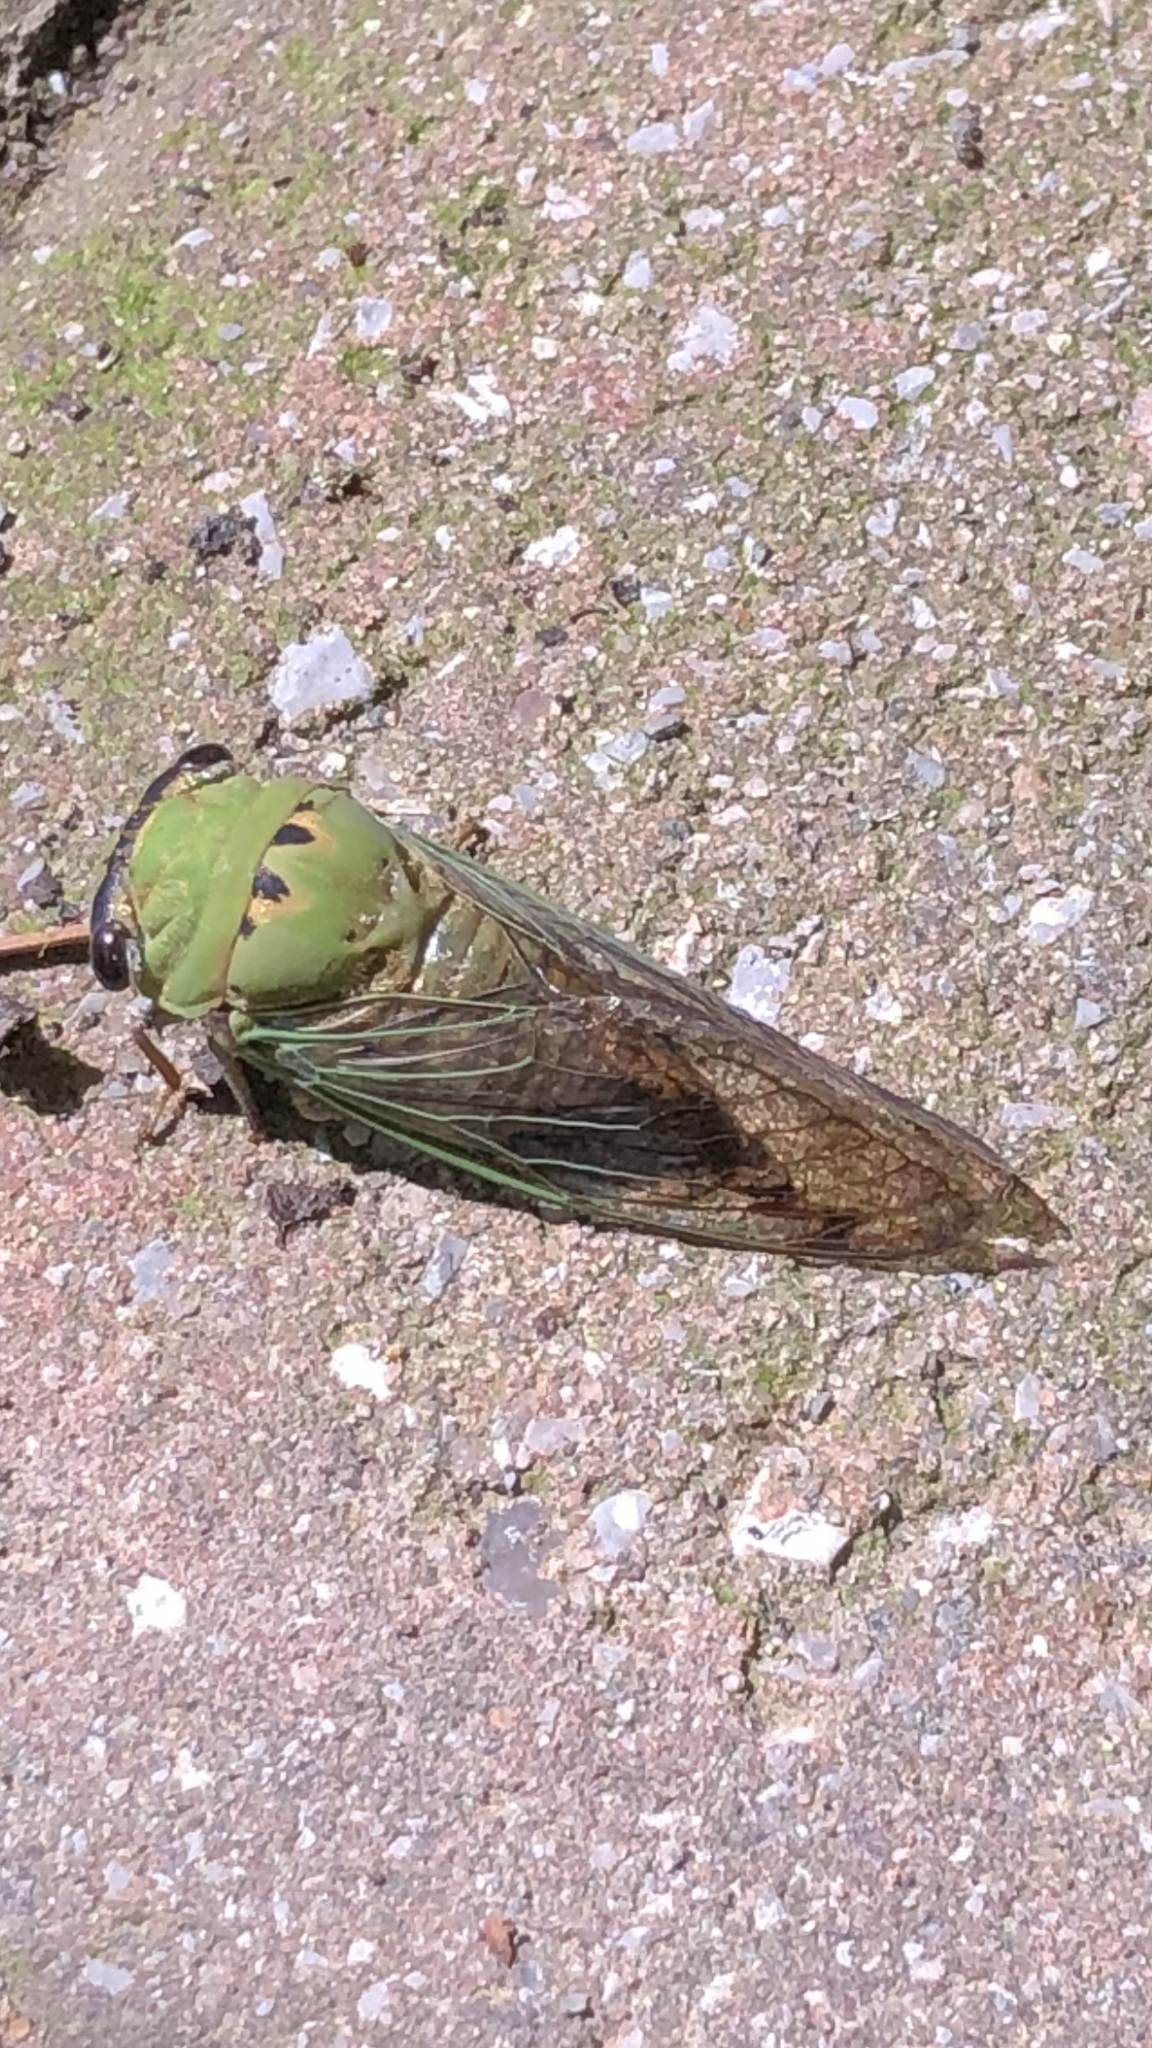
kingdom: Animalia
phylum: Arthropoda
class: Insecta
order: Hemiptera
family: Cicadidae
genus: Neotibicen
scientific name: Neotibicen superbus
